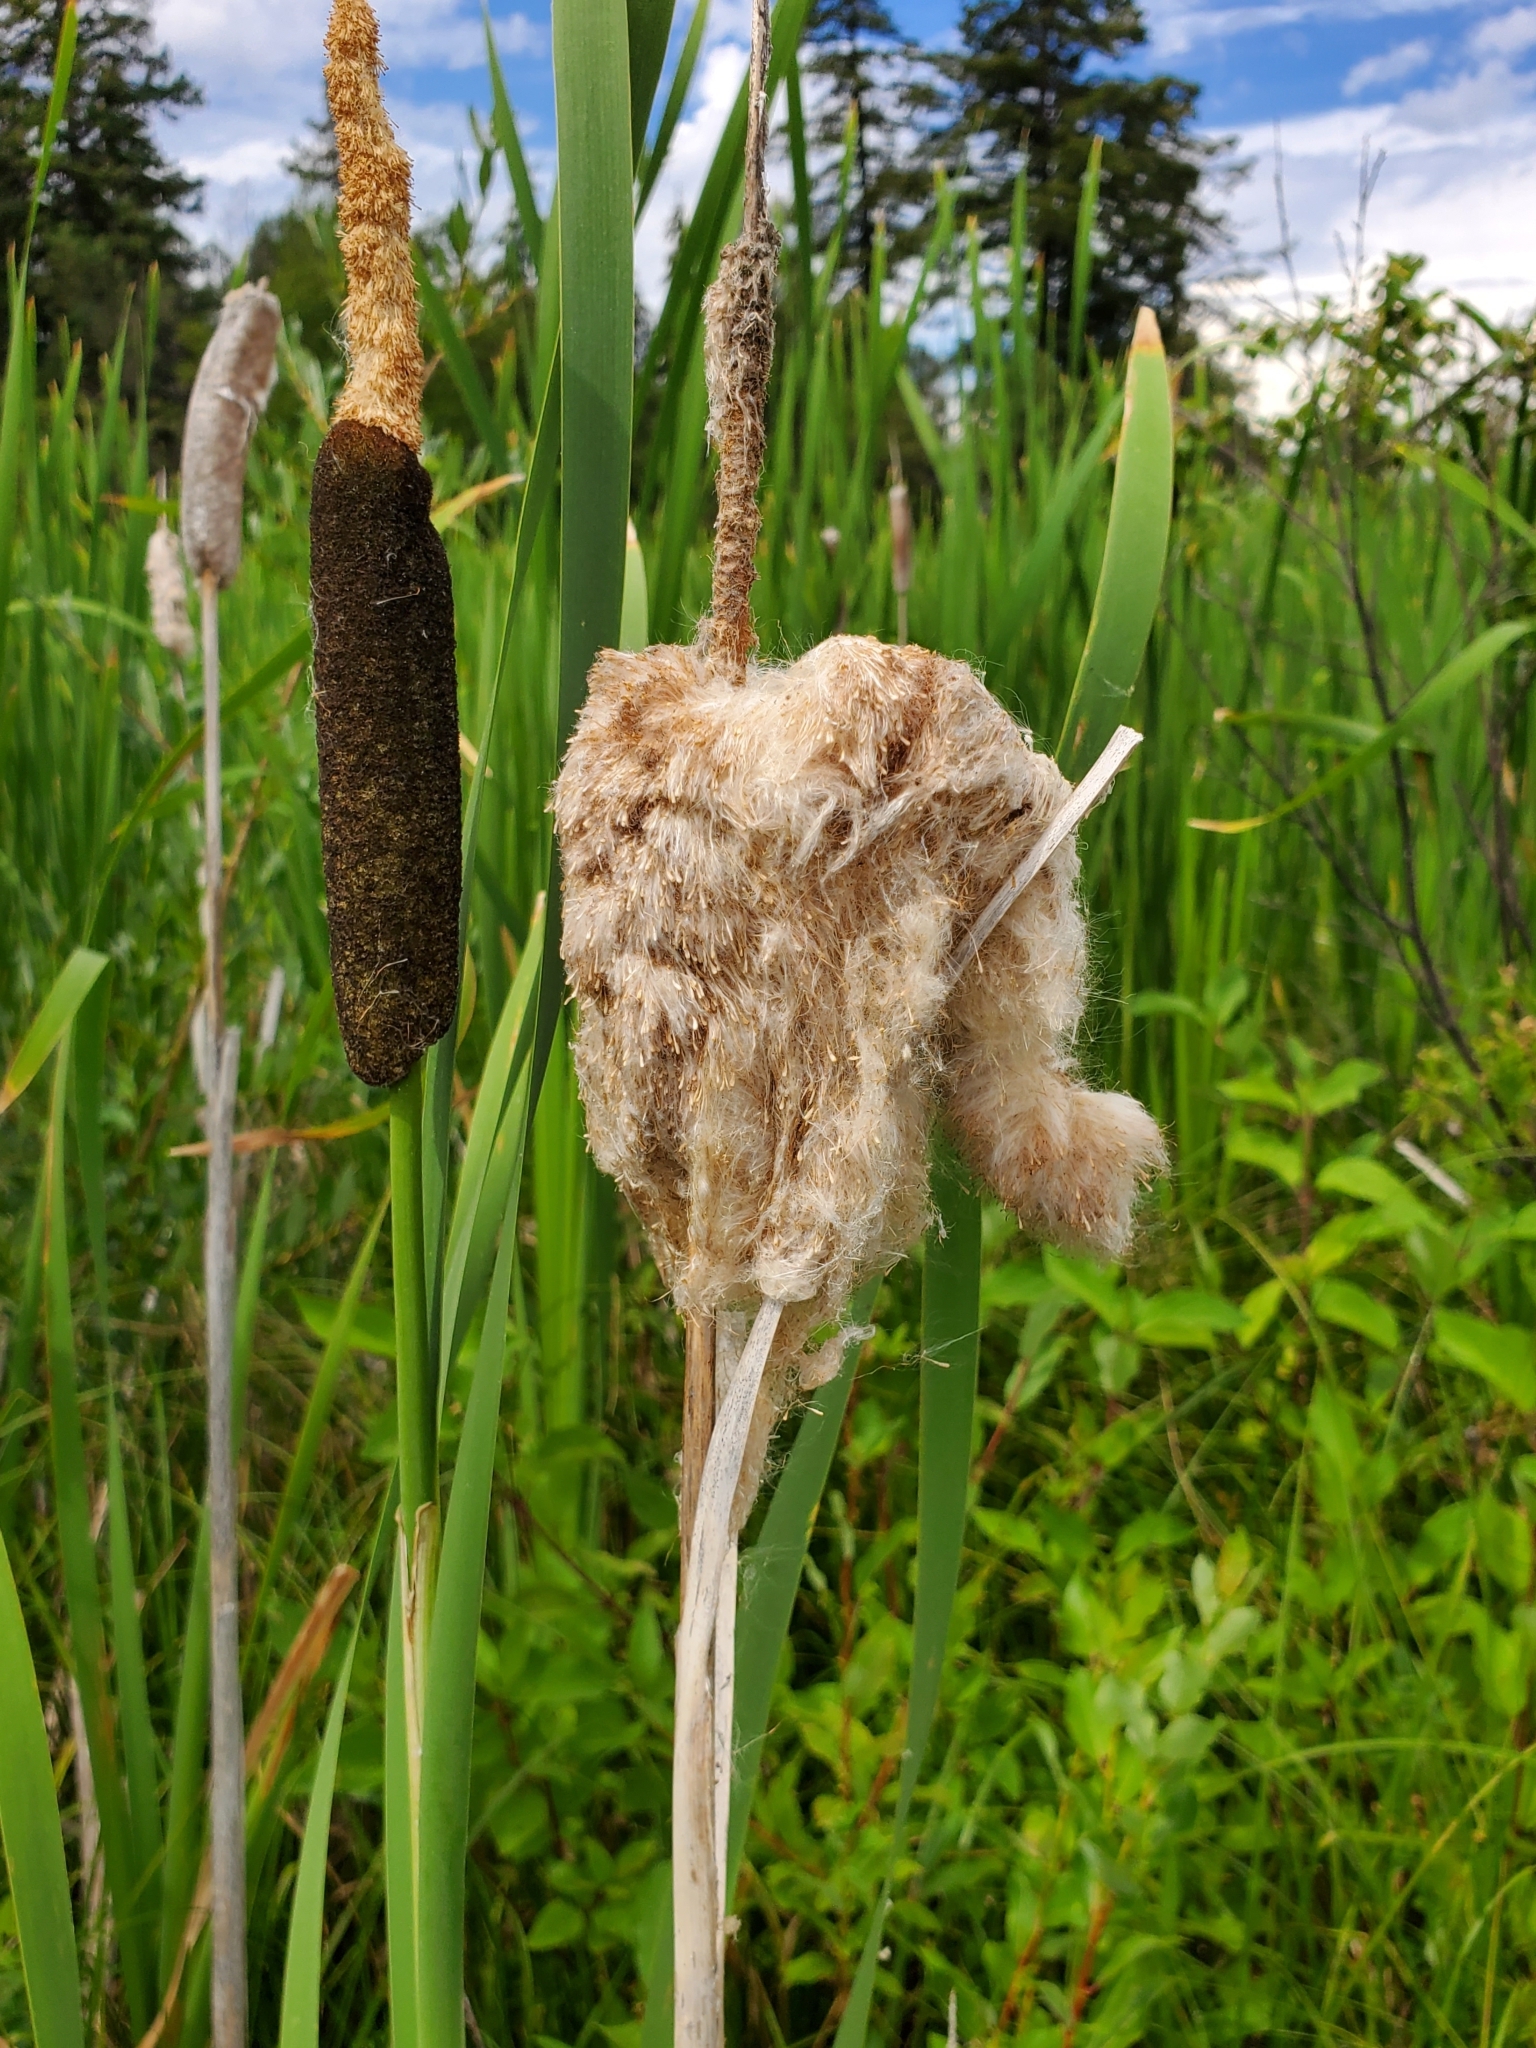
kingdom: Plantae
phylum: Tracheophyta
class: Liliopsida
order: Poales
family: Typhaceae
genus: Typha
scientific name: Typha latifolia
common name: Broadleaf cattail
